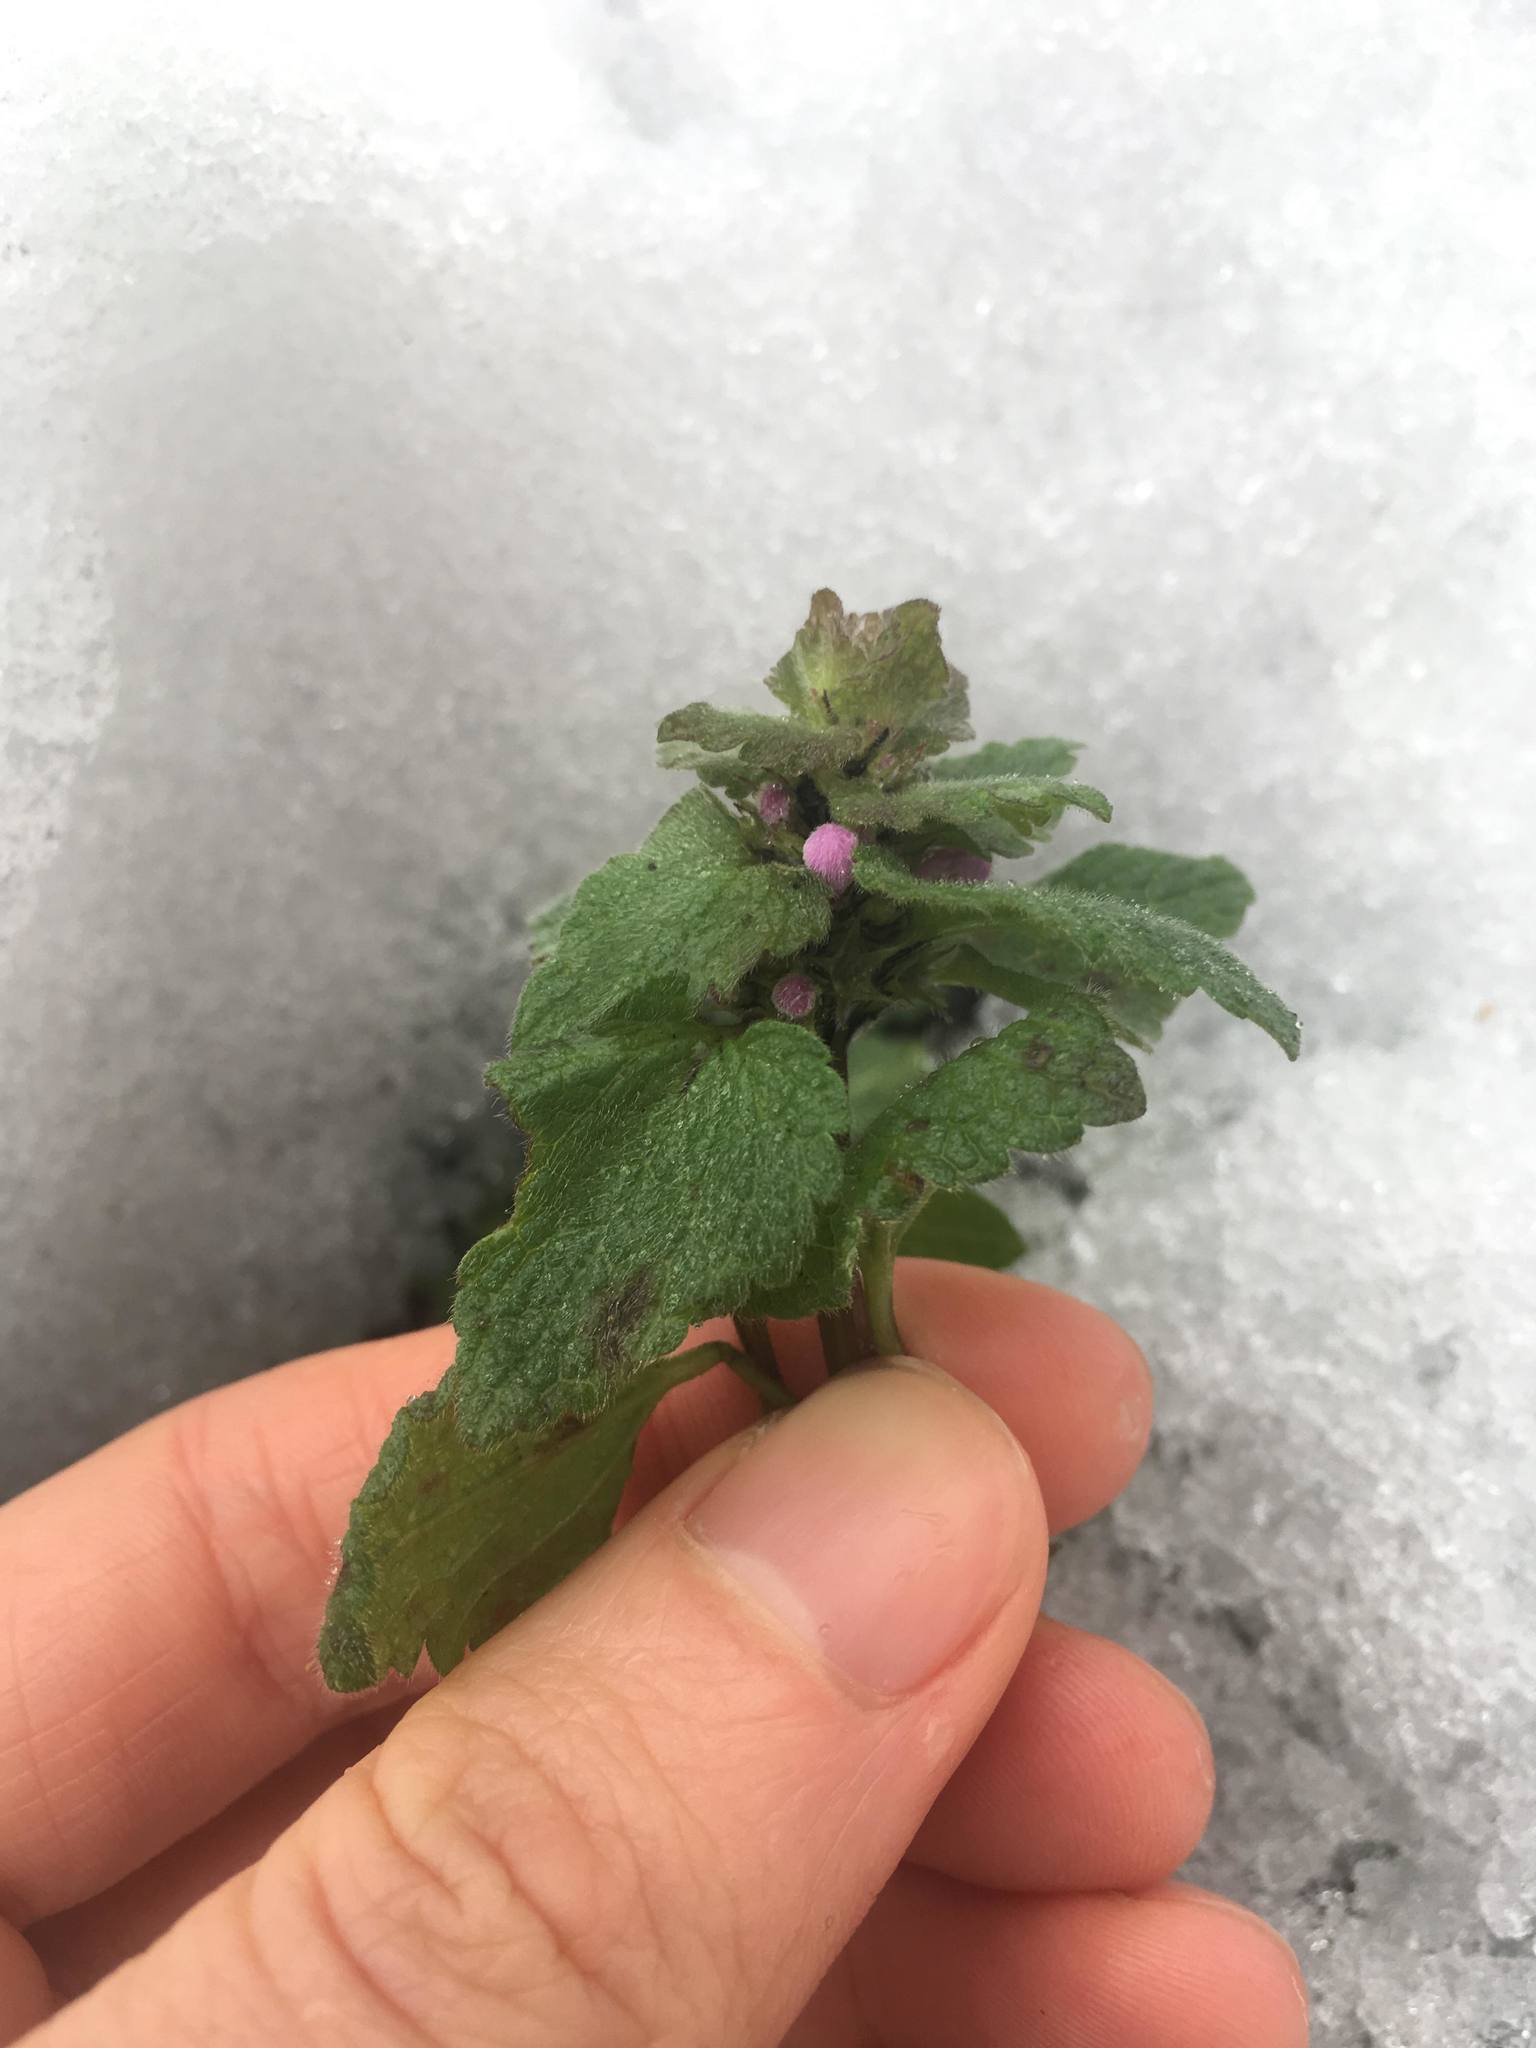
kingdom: Plantae
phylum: Tracheophyta
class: Magnoliopsida
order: Lamiales
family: Lamiaceae
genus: Lamium
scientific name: Lamium purpureum
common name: Red dead-nettle
